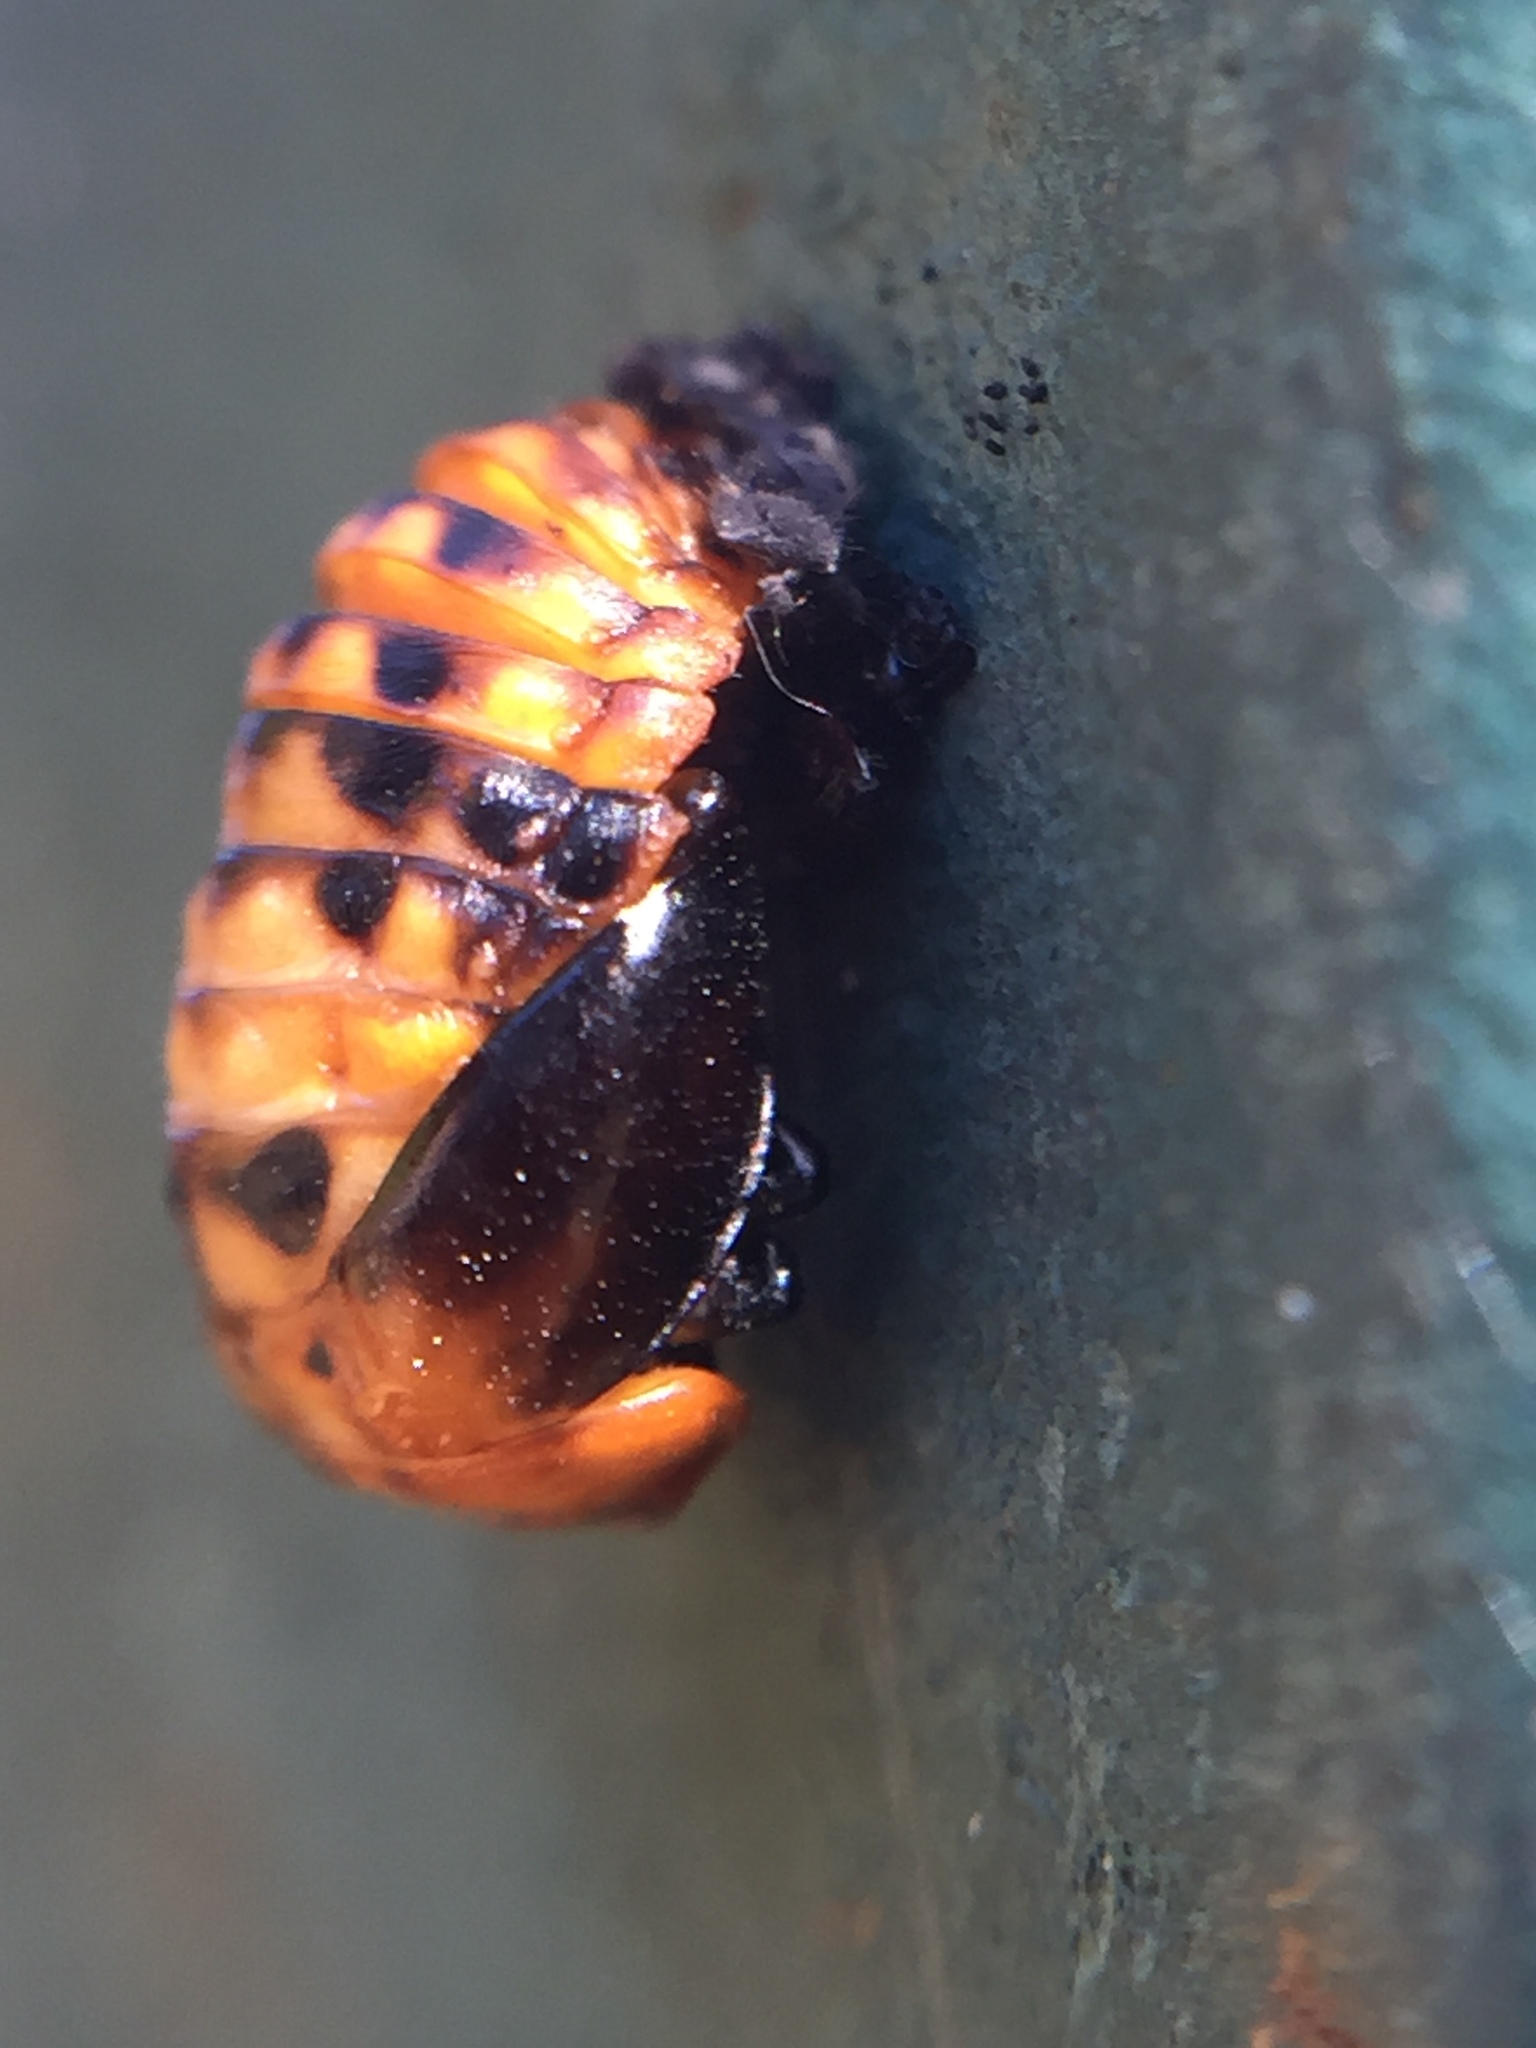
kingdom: Animalia
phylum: Arthropoda
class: Insecta
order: Coleoptera
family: Coccinellidae
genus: Harmonia
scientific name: Harmonia axyridis
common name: Harlequin ladybird
